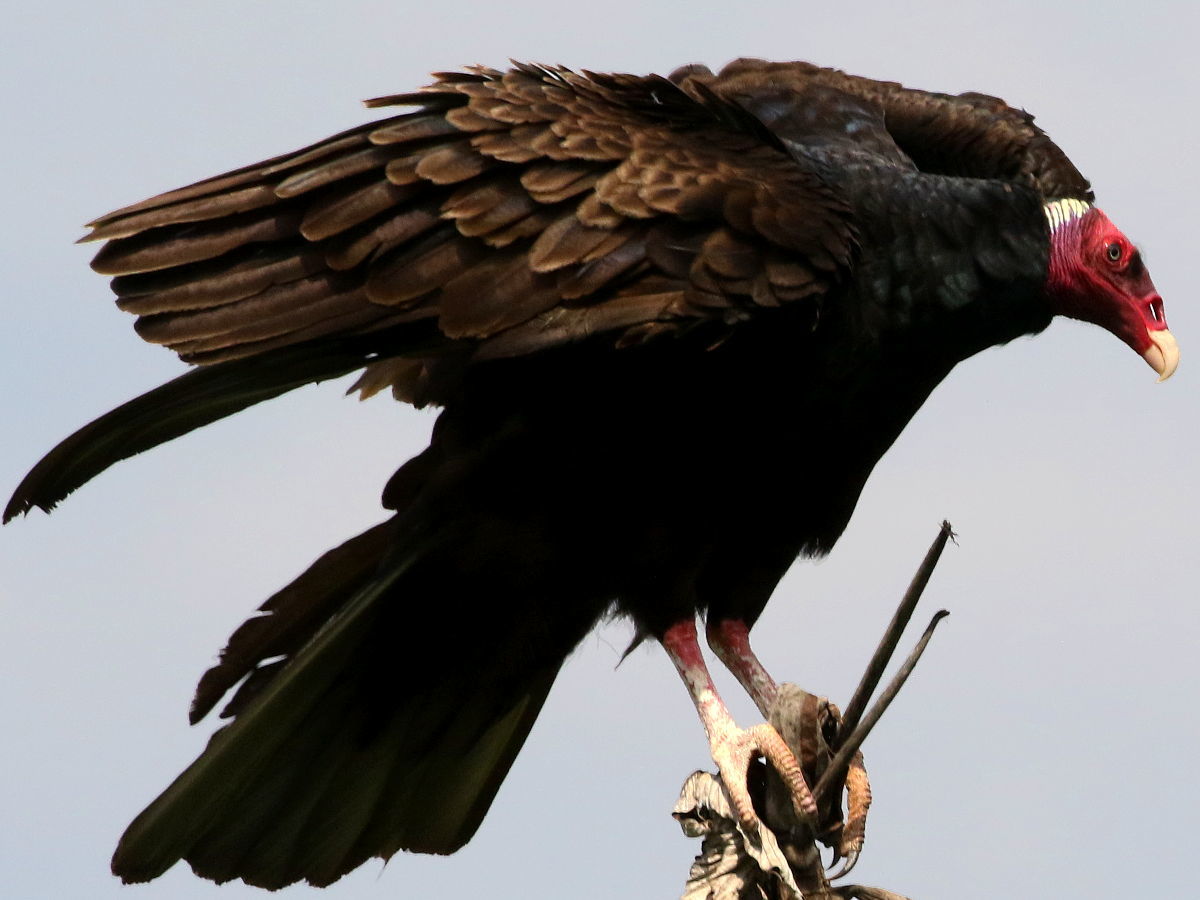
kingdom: Animalia
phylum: Chordata
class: Aves
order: Accipitriformes
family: Cathartidae
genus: Cathartes
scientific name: Cathartes aura
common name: Turkey vulture
